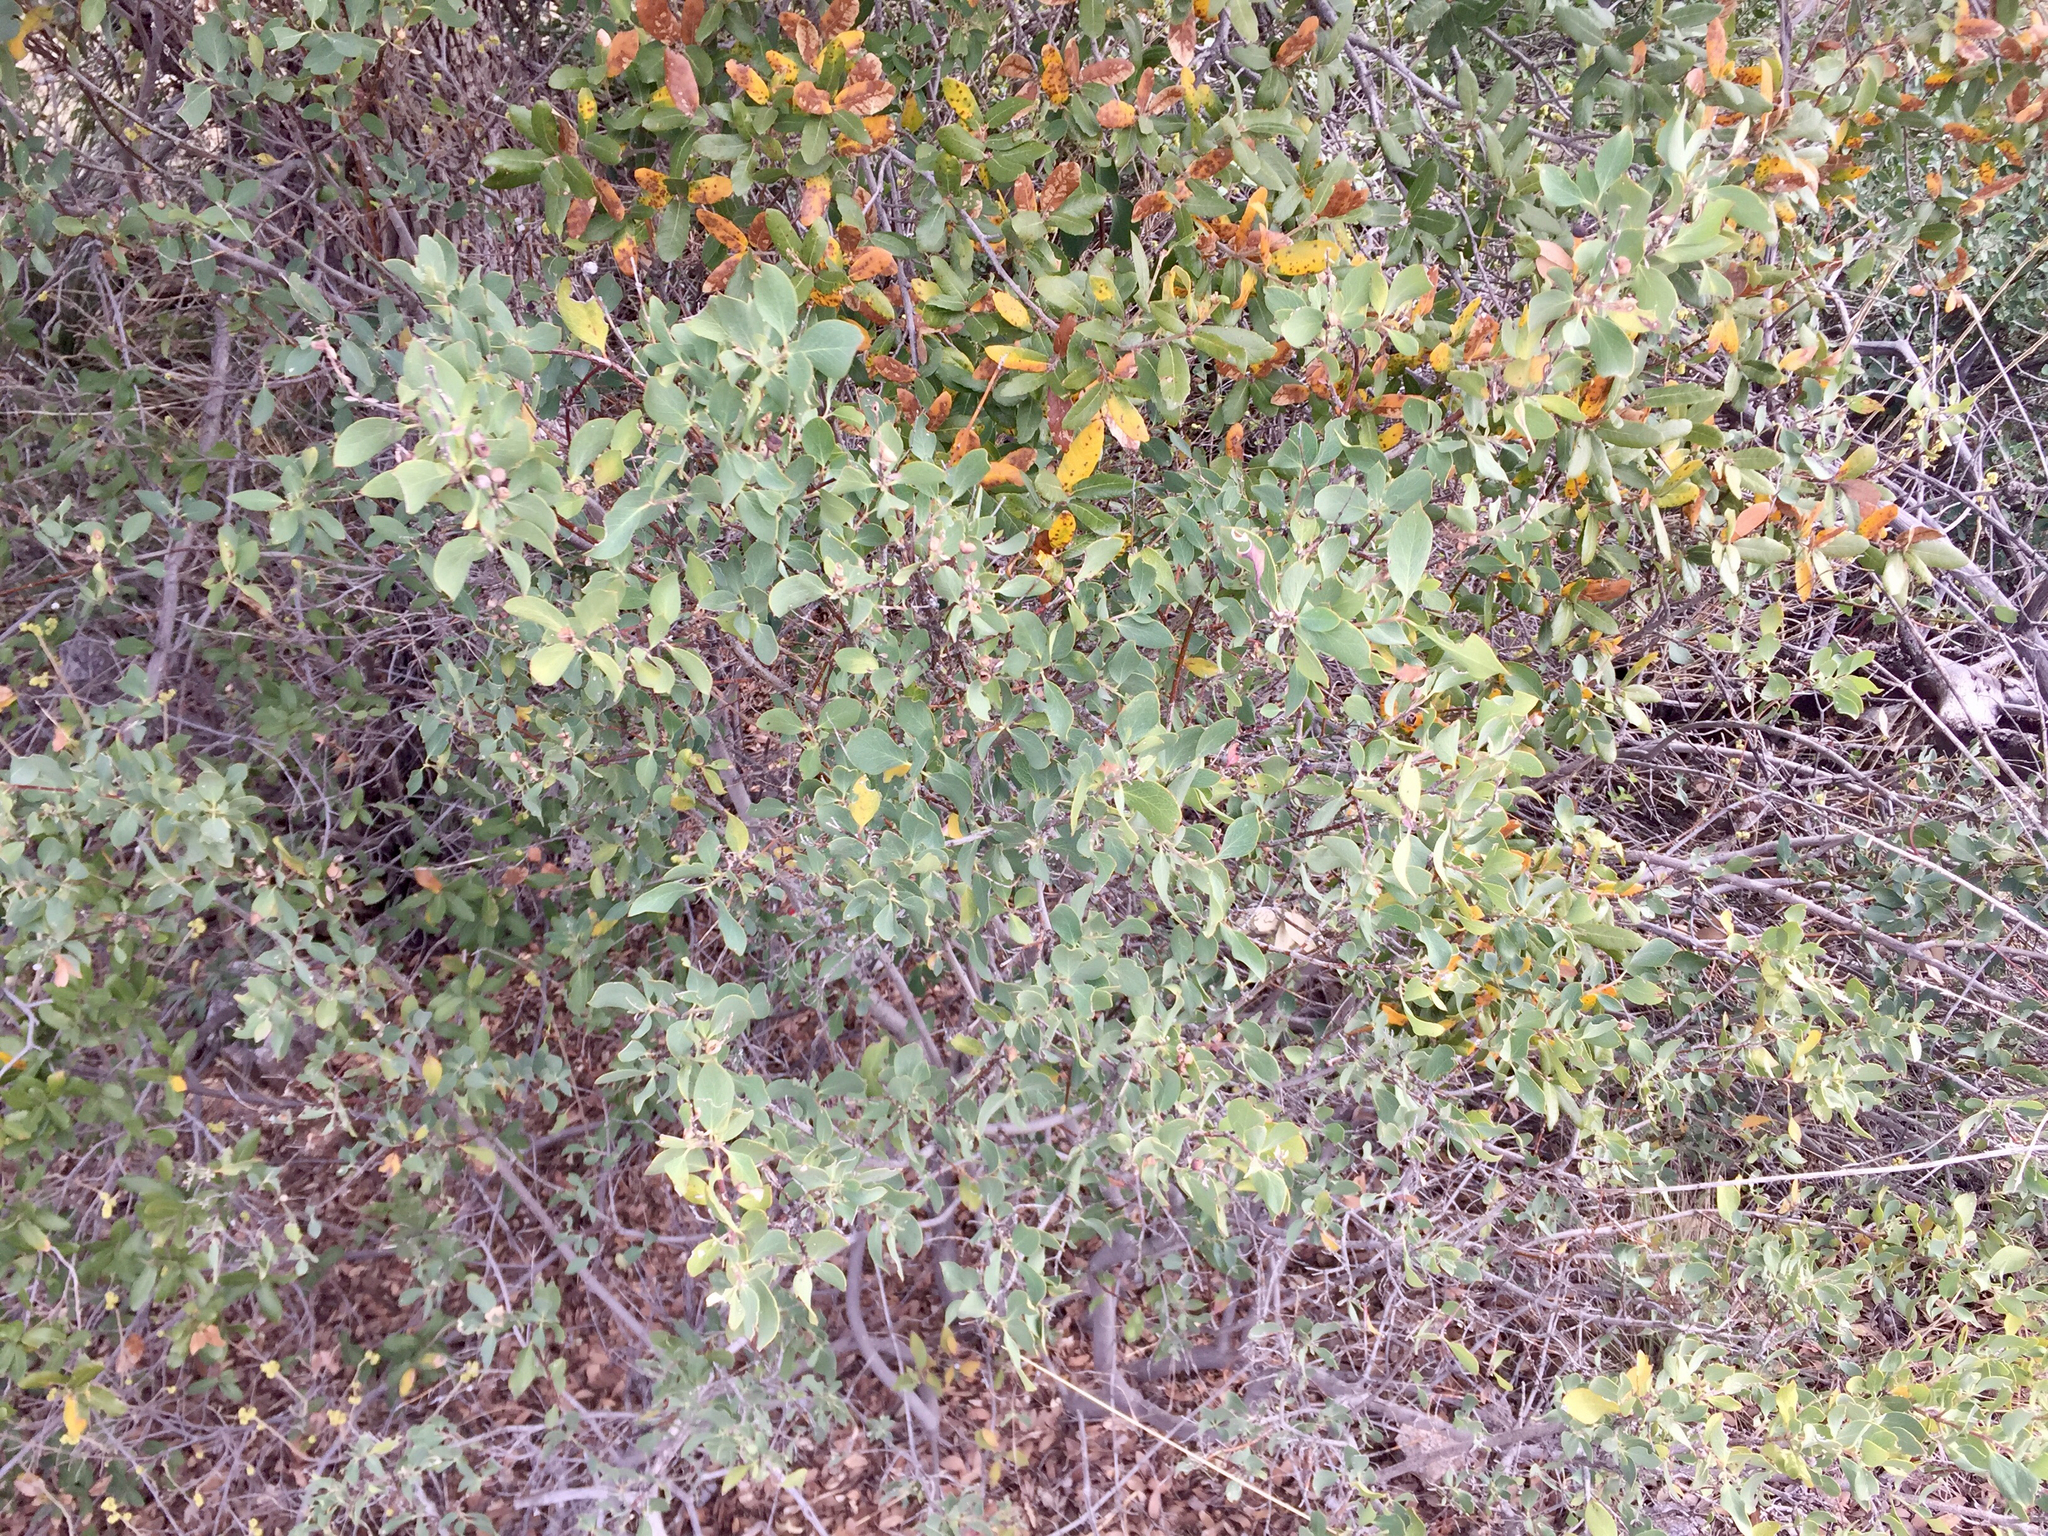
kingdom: Plantae
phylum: Tracheophyta
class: Magnoliopsida
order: Garryales
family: Garryaceae
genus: Garrya
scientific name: Garrya wrightii
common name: Wright's silktassel
